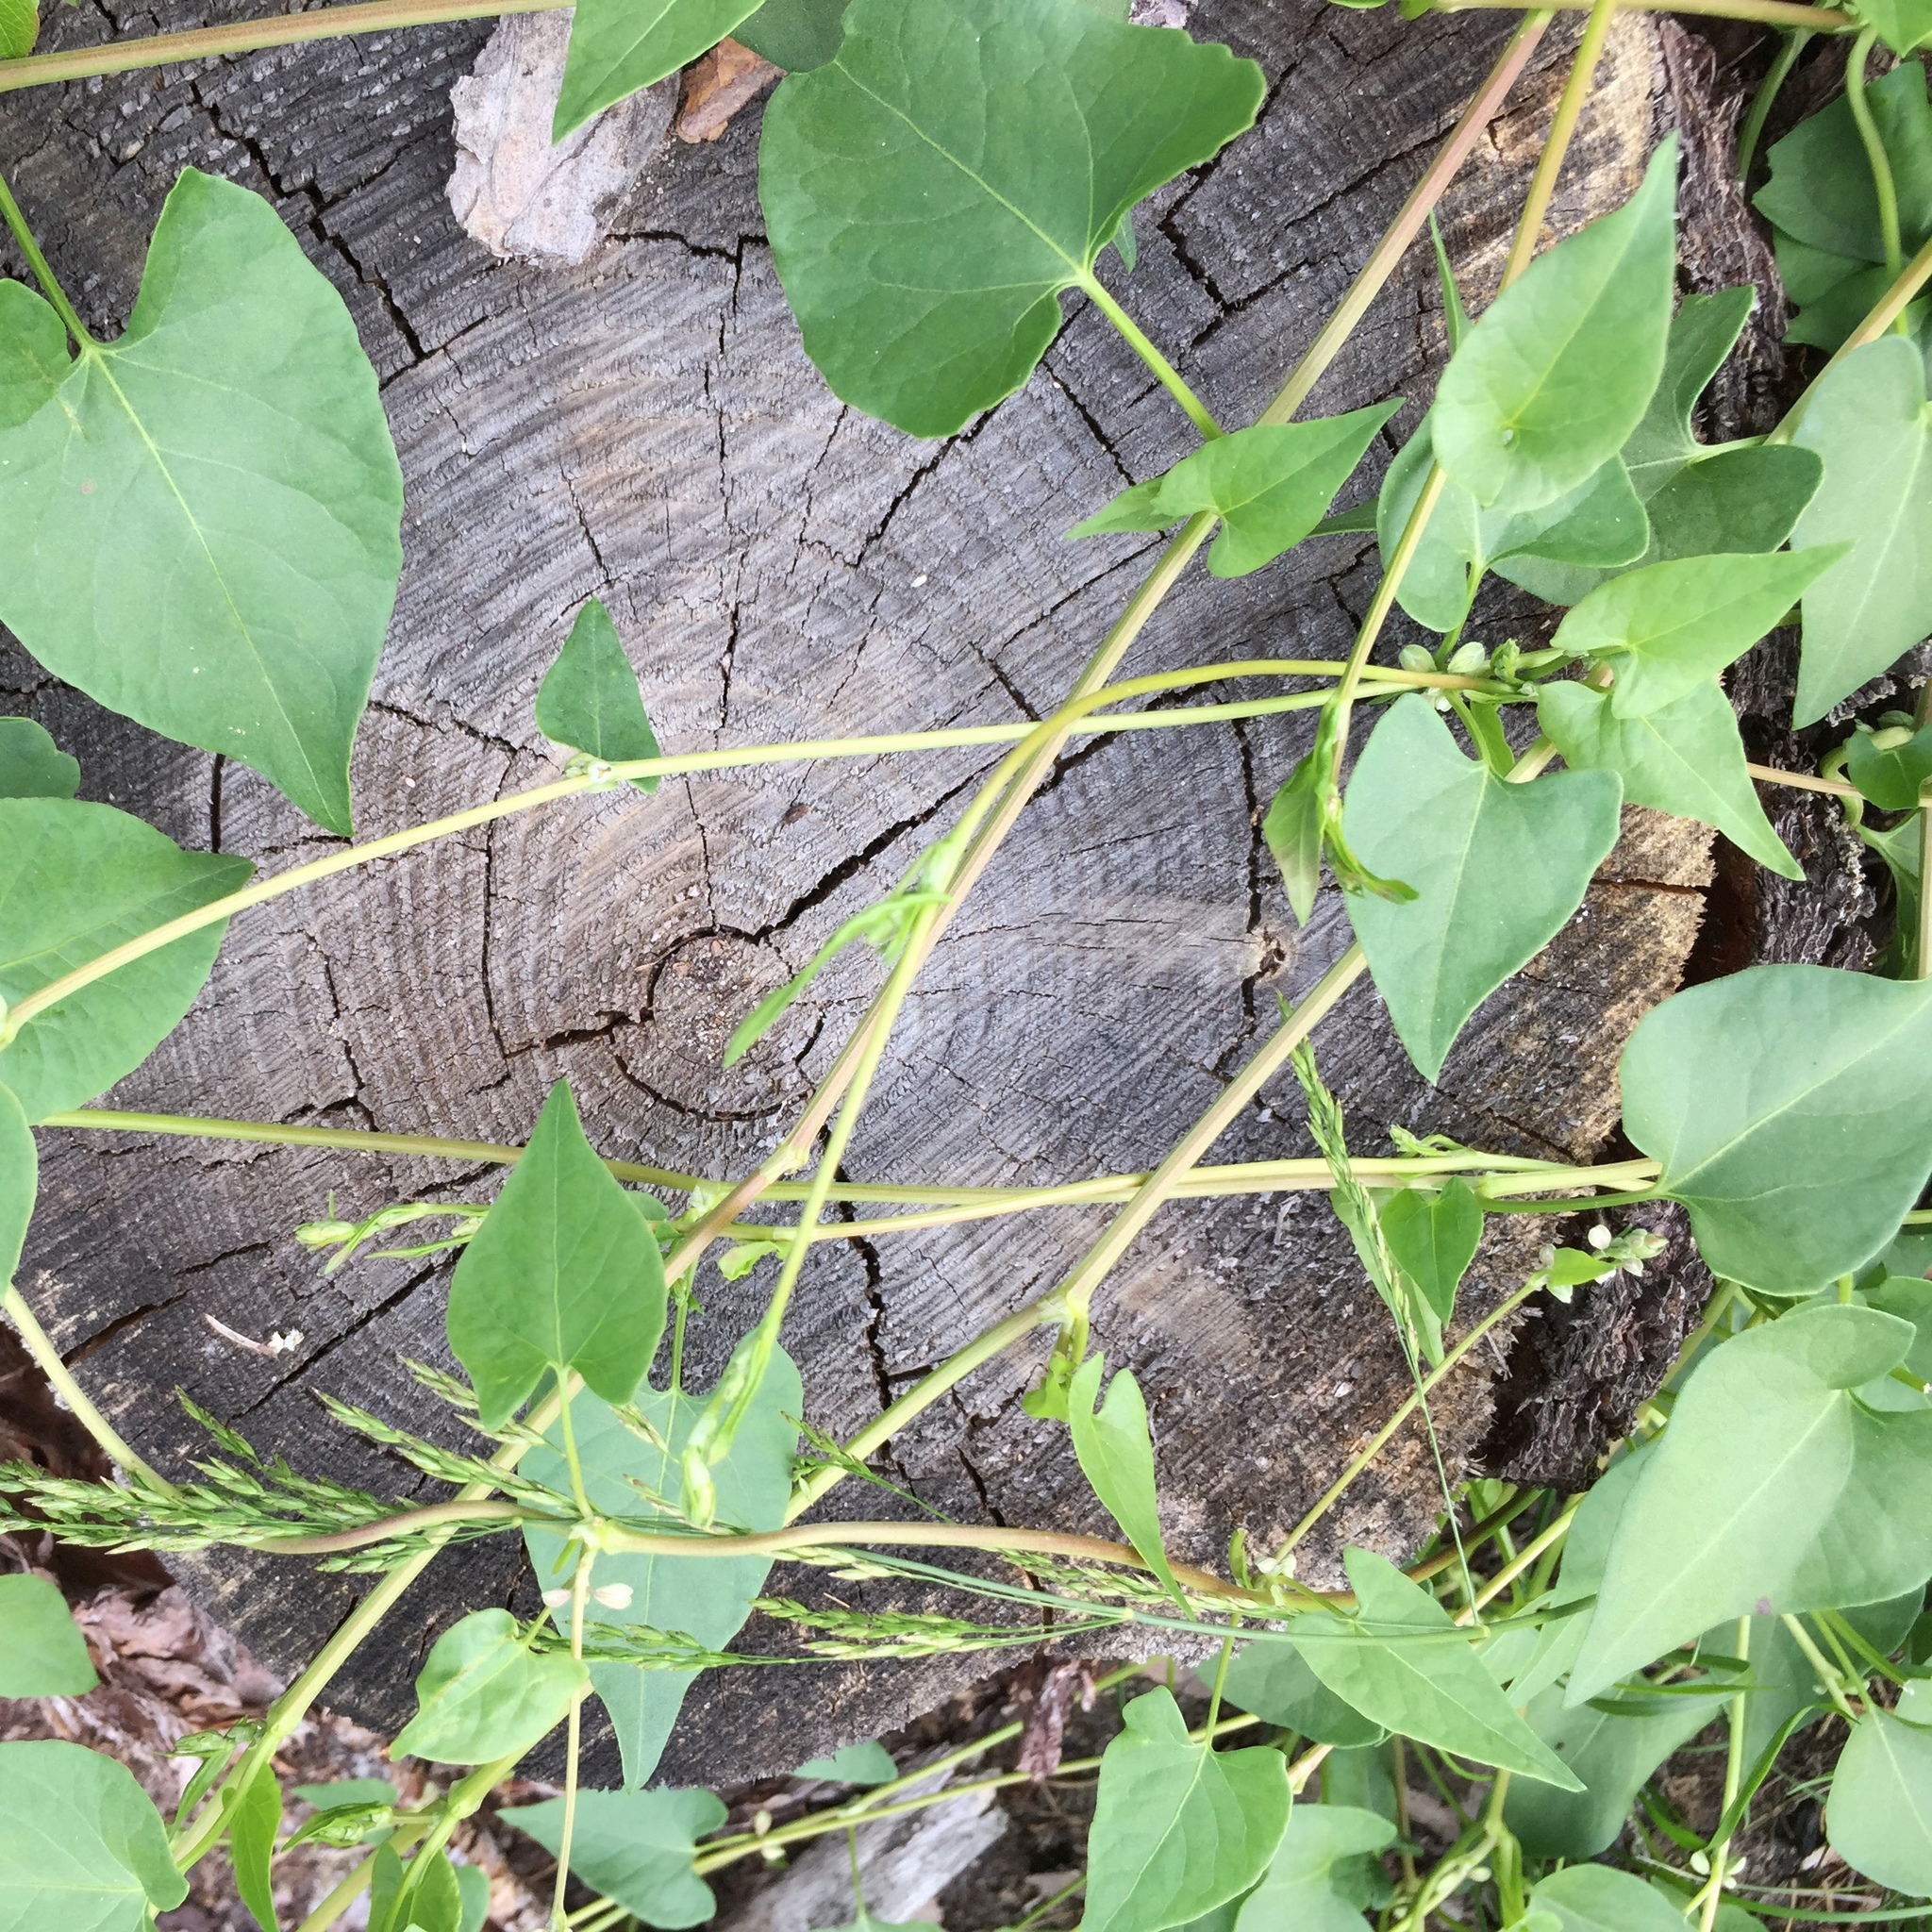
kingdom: Plantae
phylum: Tracheophyta
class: Magnoliopsida
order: Caryophyllales
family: Polygonaceae
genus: Fallopia
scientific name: Fallopia convolvulus
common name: Black bindweed
